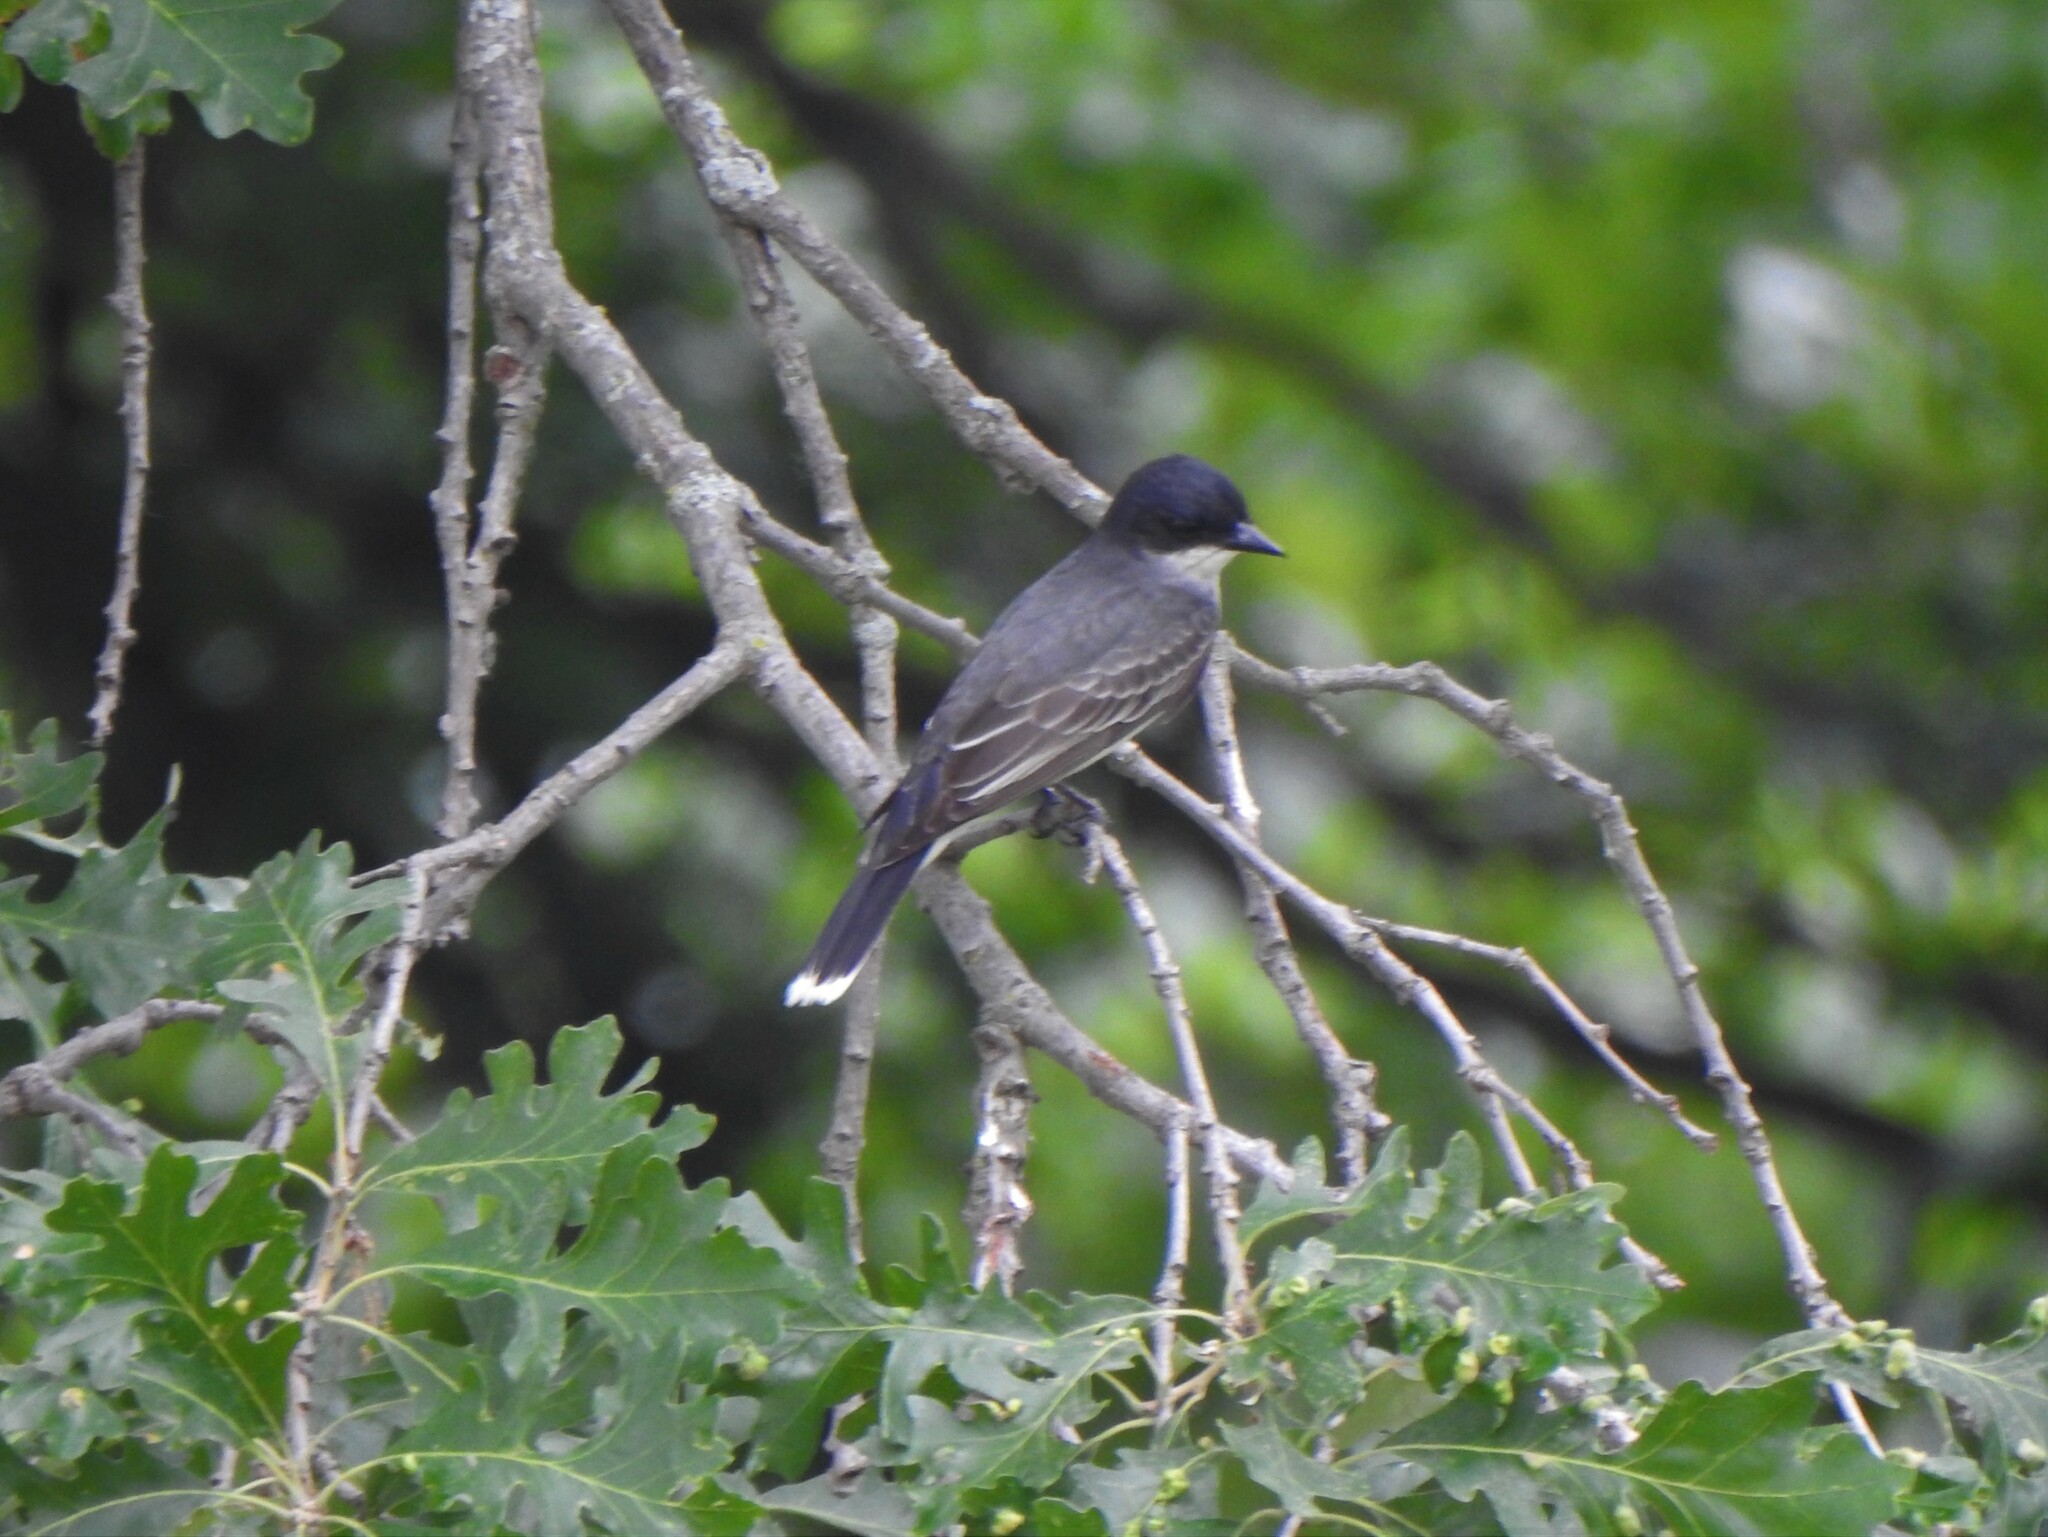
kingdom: Animalia
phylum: Chordata
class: Aves
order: Passeriformes
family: Tyrannidae
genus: Tyrannus
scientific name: Tyrannus tyrannus
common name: Eastern kingbird
